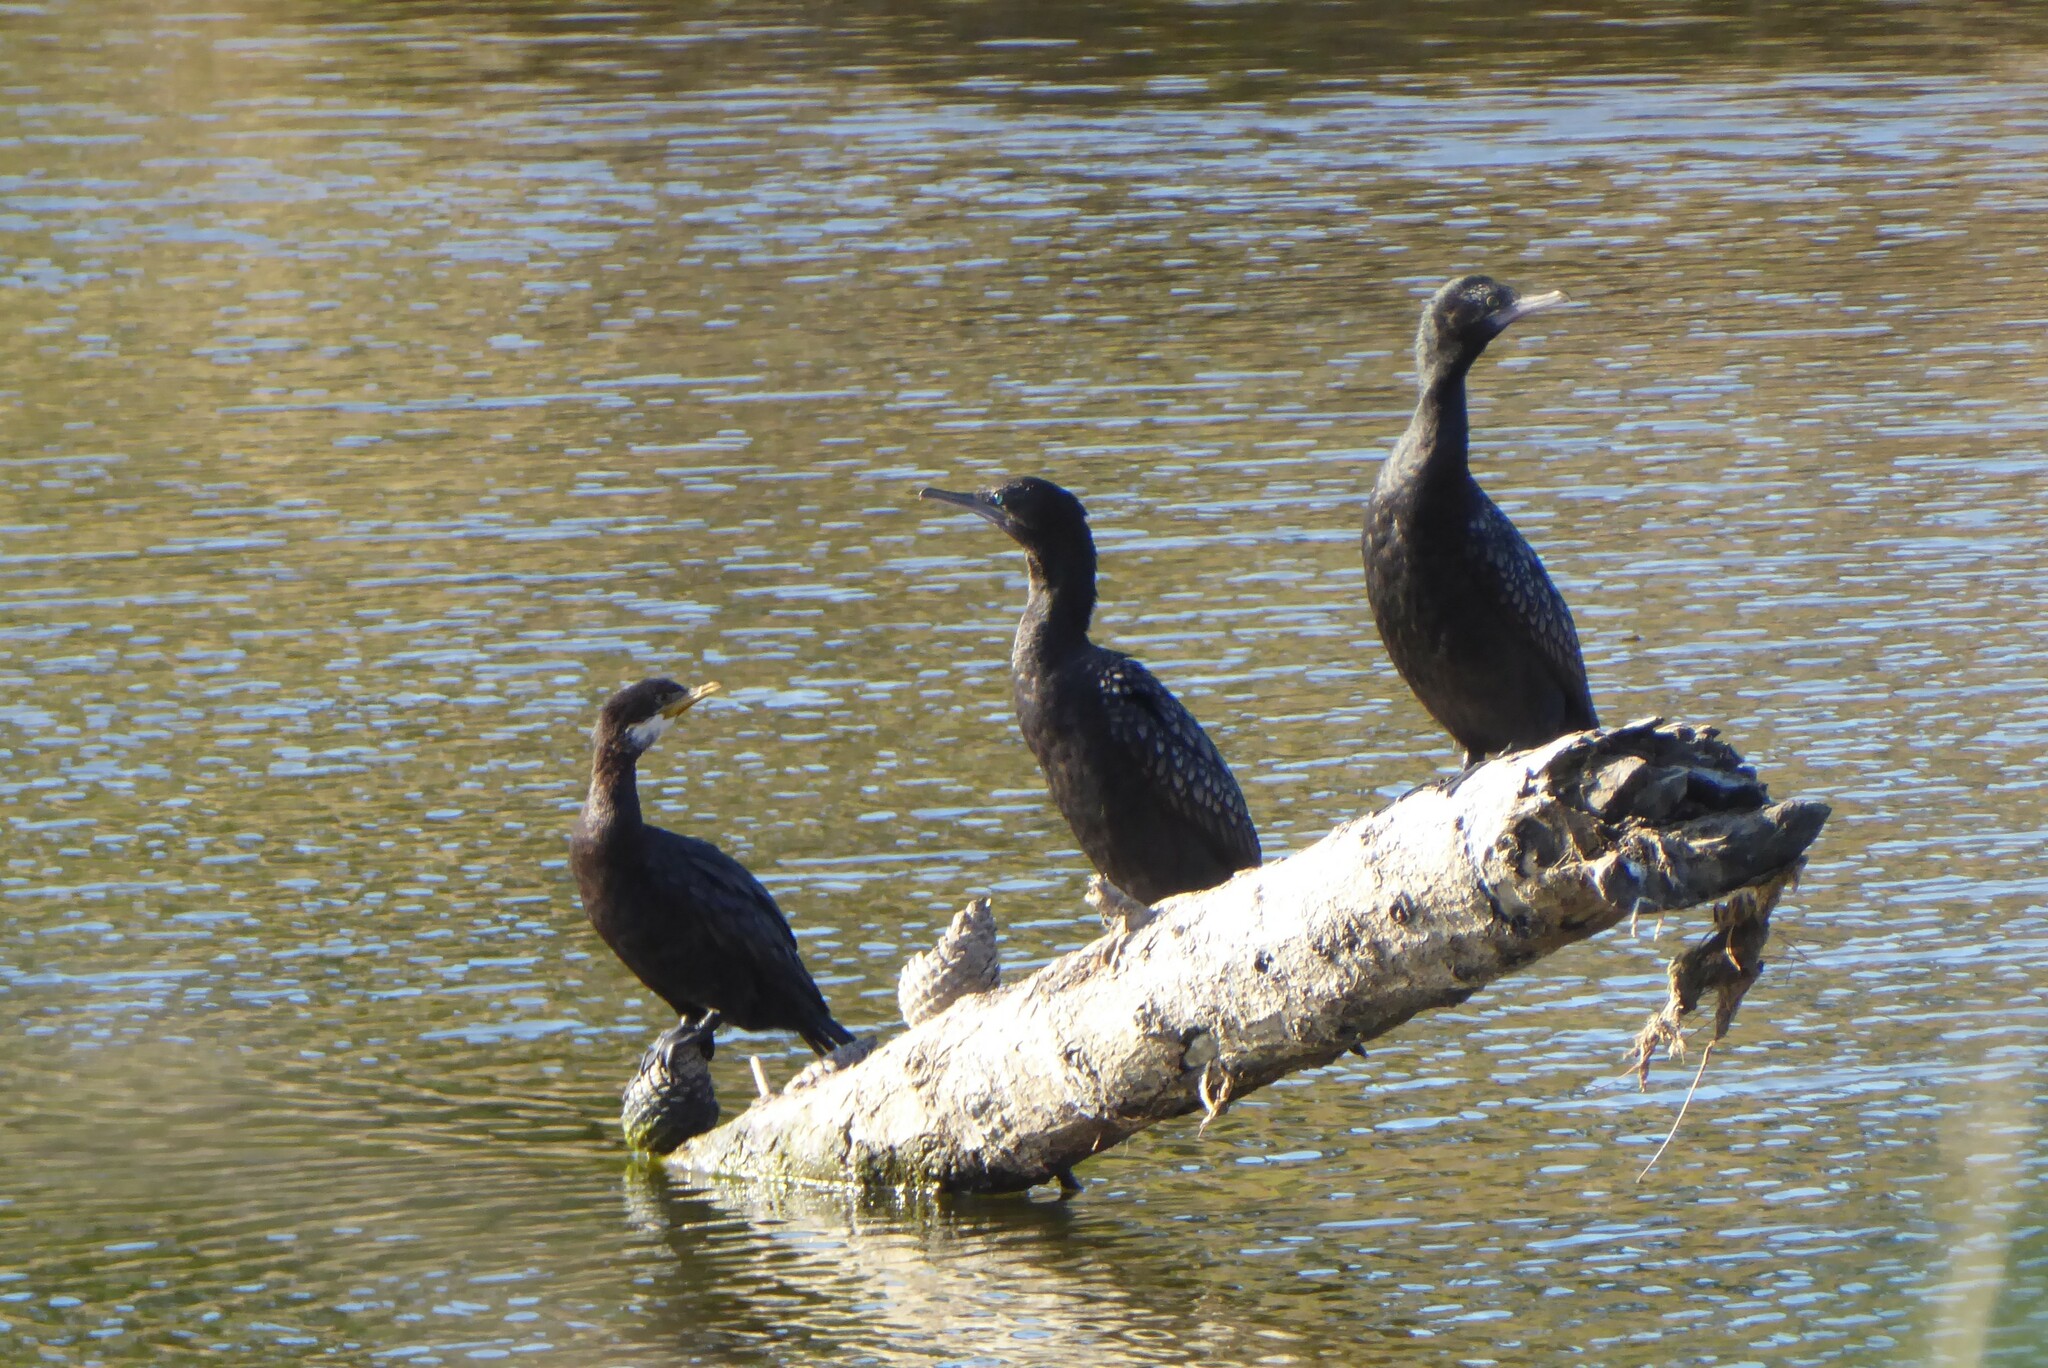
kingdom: Animalia
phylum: Chordata
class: Aves
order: Suliformes
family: Phalacrocoracidae
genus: Phalacrocorax
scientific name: Phalacrocorax sulcirostris
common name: Little black cormorant
